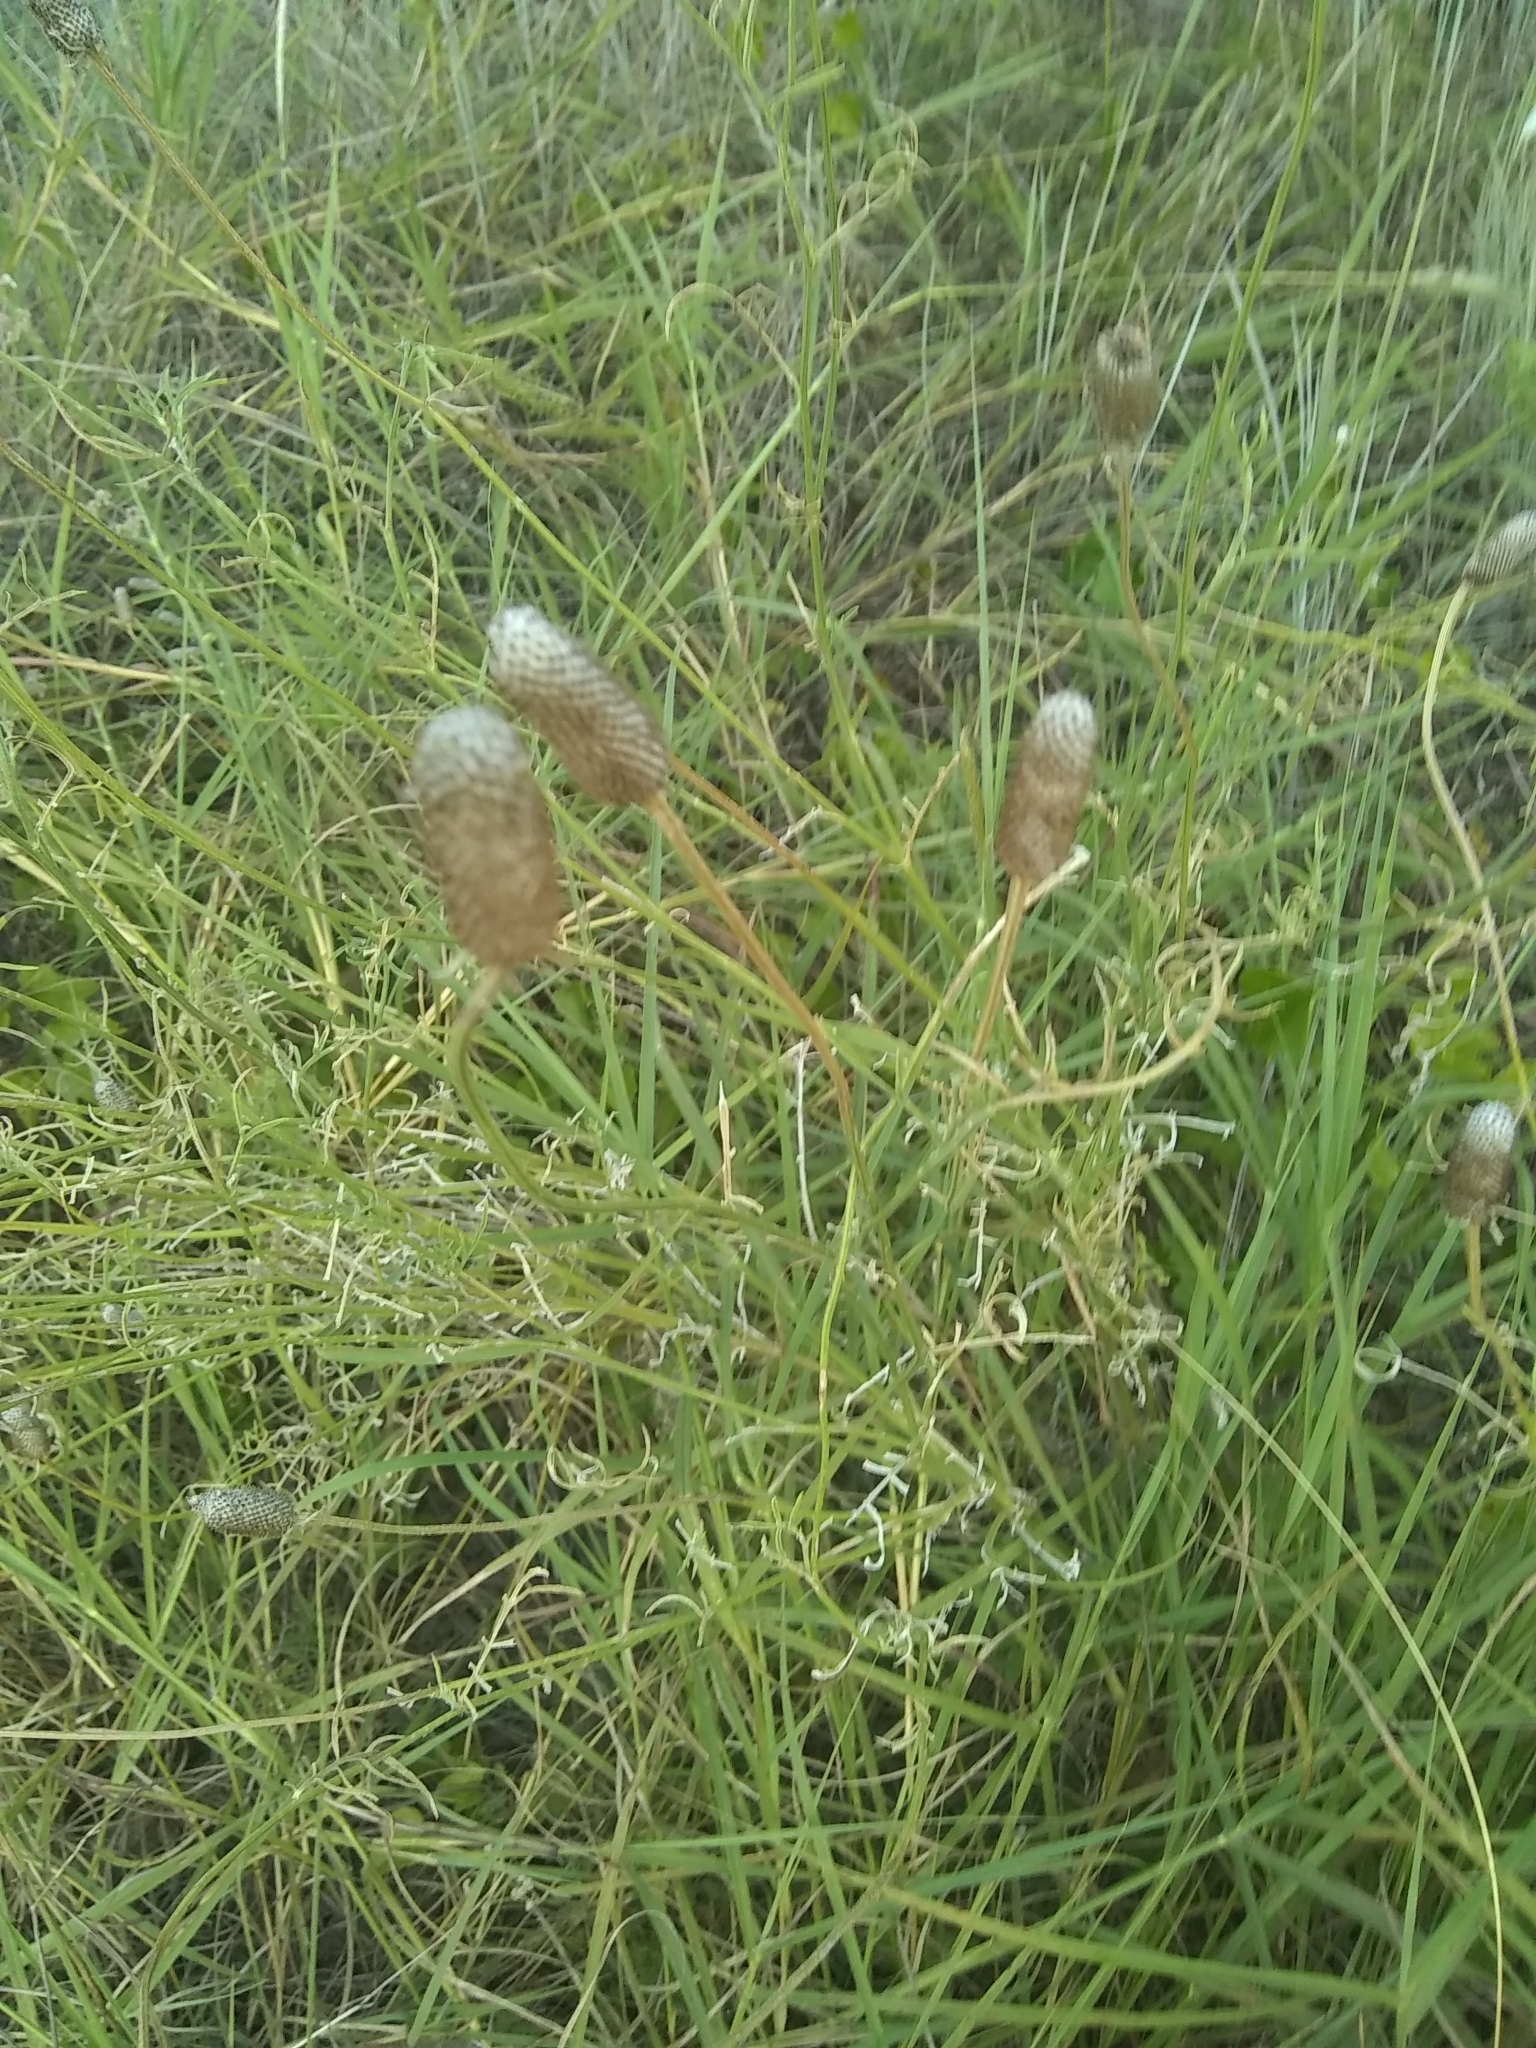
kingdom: Plantae
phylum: Tracheophyta
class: Magnoliopsida
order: Asterales
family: Asteraceae
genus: Ratibida
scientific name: Ratibida columnifera
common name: Prairie coneflower
